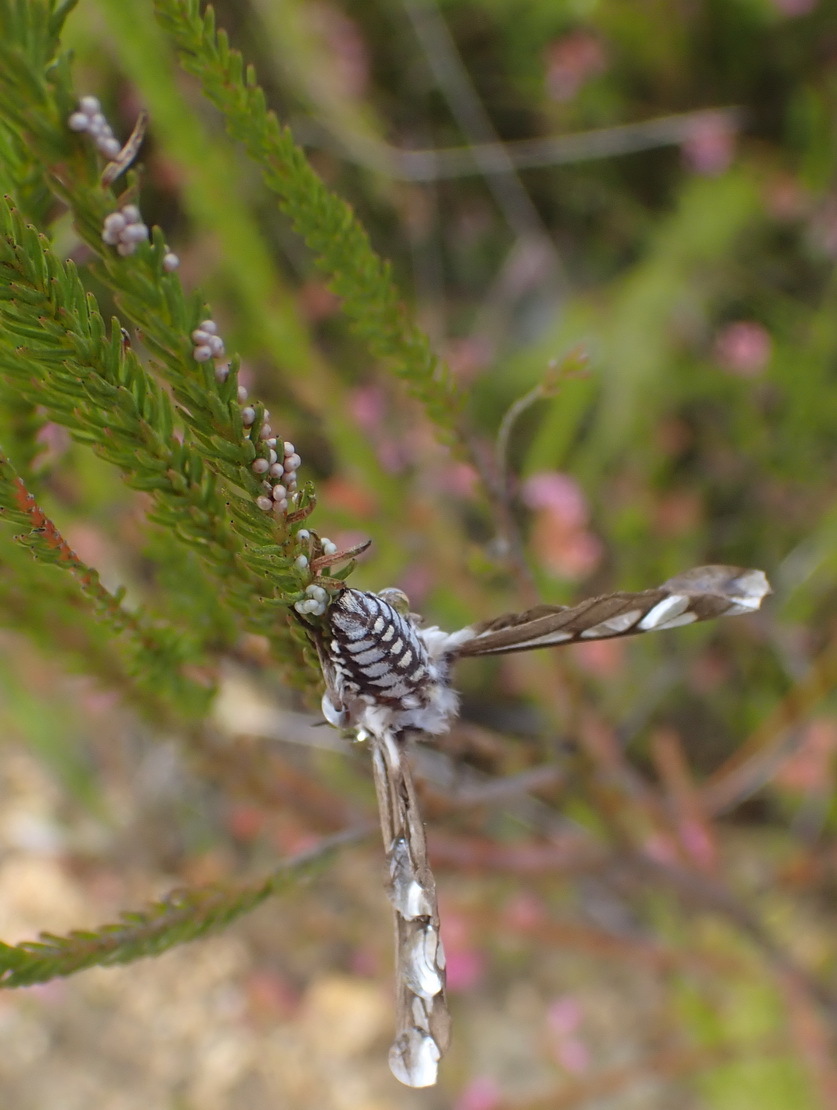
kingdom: Animalia
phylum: Arthropoda
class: Insecta
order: Lepidoptera
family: Erebidae
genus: Thyretes
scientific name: Thyretes hippotes
